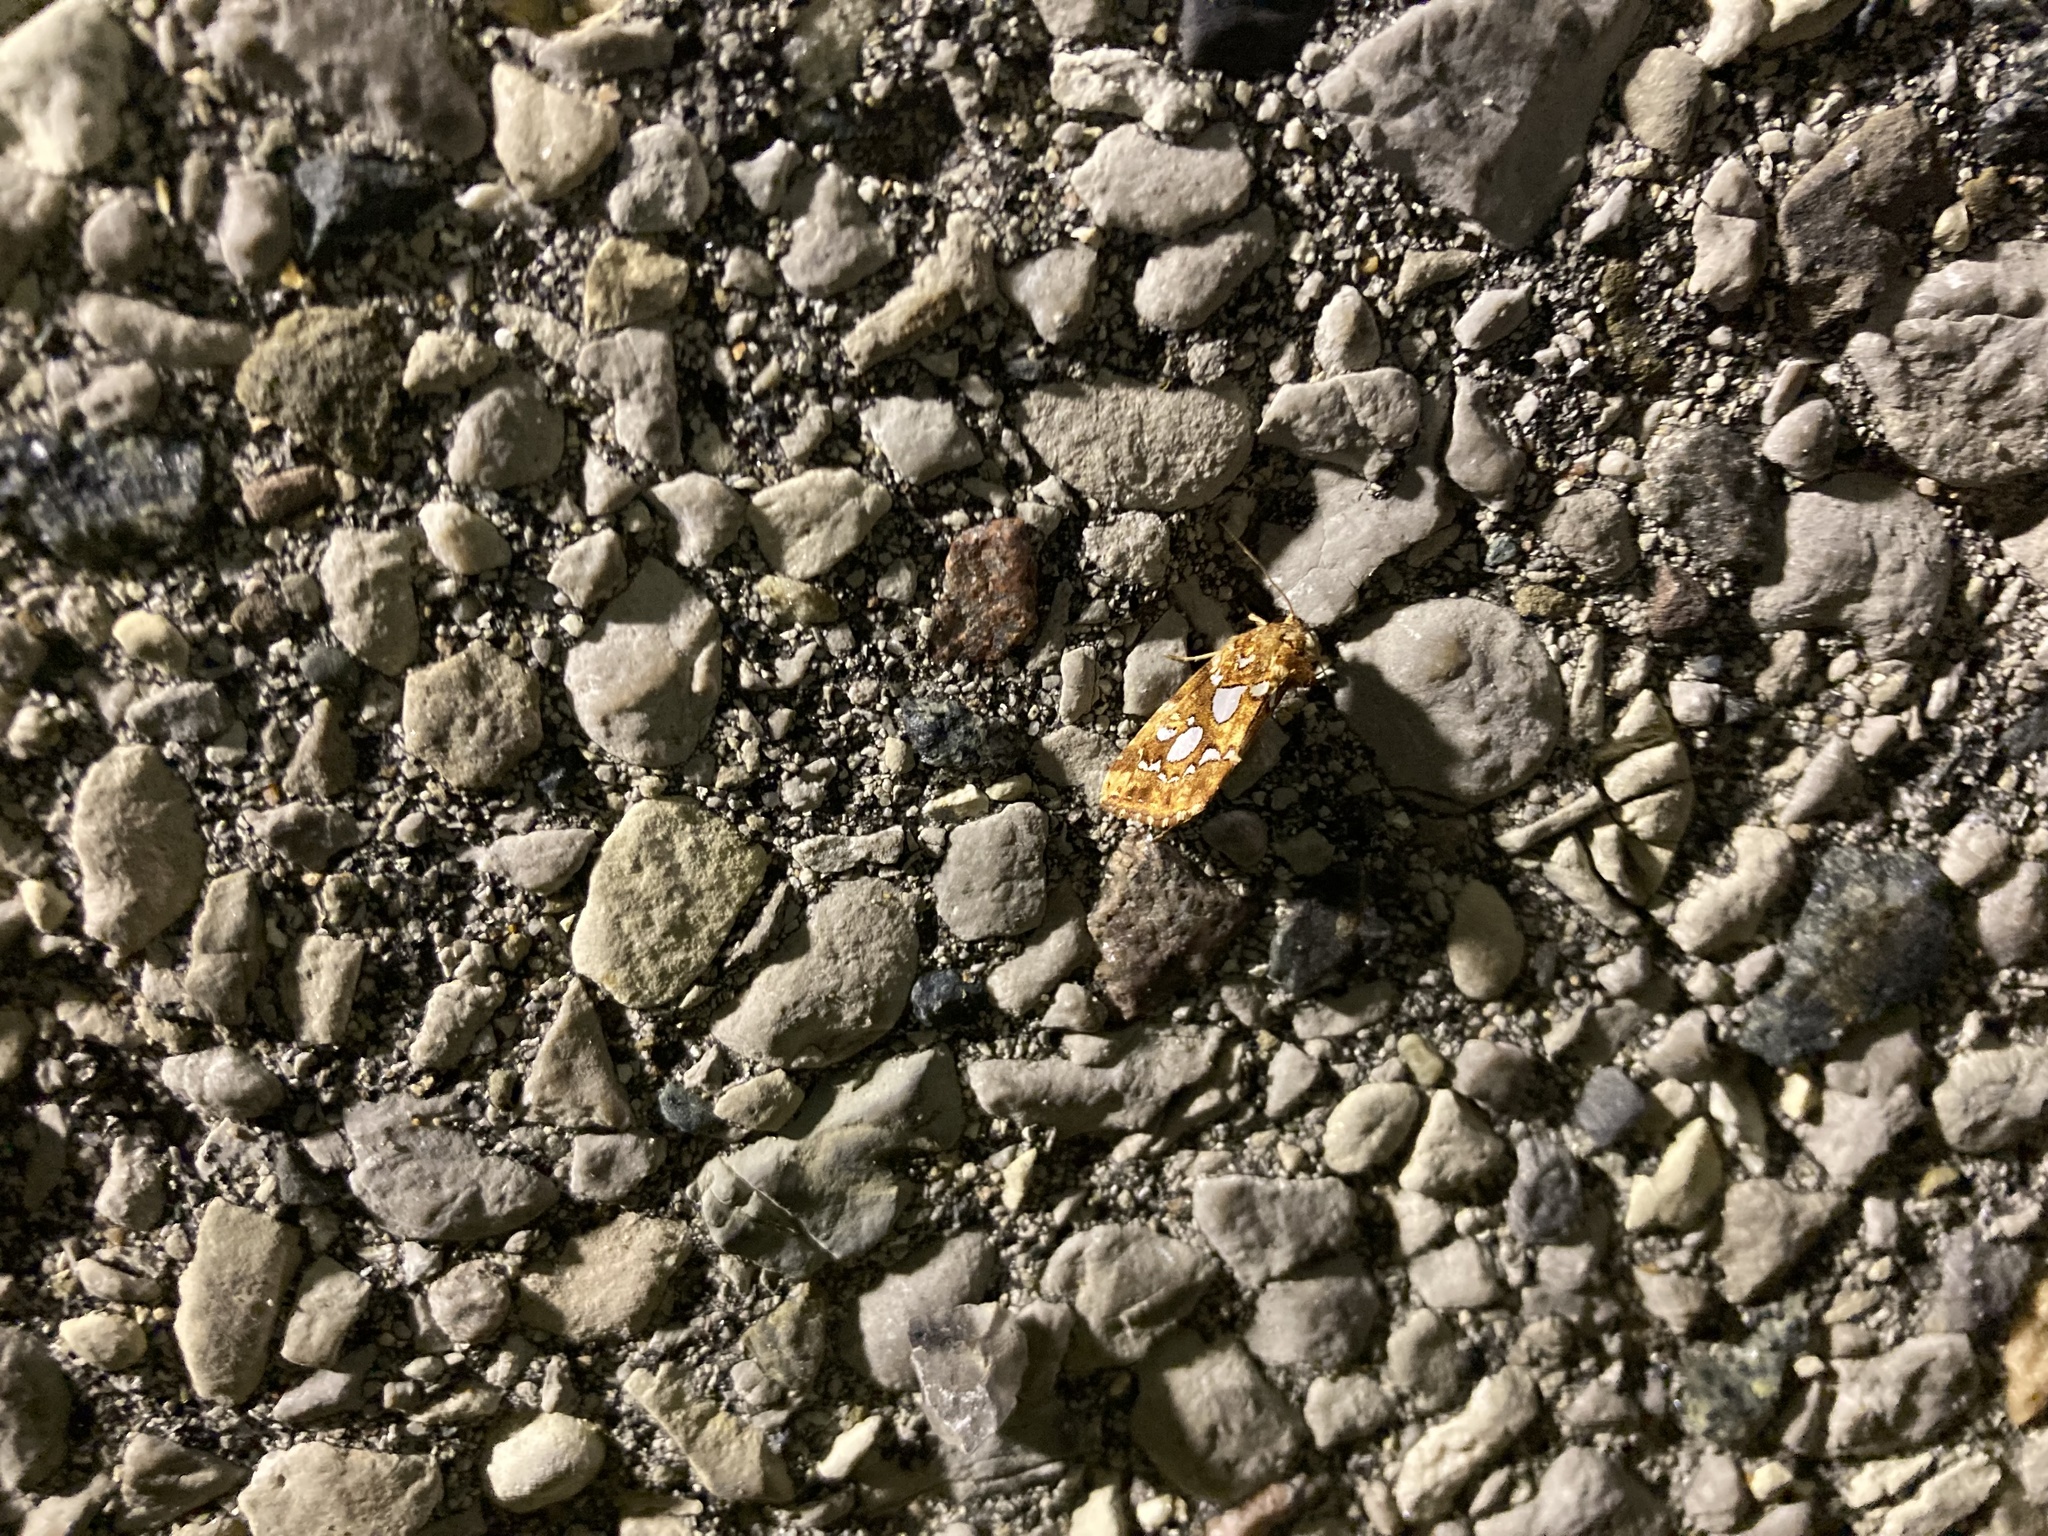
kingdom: Animalia
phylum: Arthropoda
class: Insecta
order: Lepidoptera
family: Noctuidae
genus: Callopistria
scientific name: Callopistria cordata
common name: Silver-spotted fern moth
